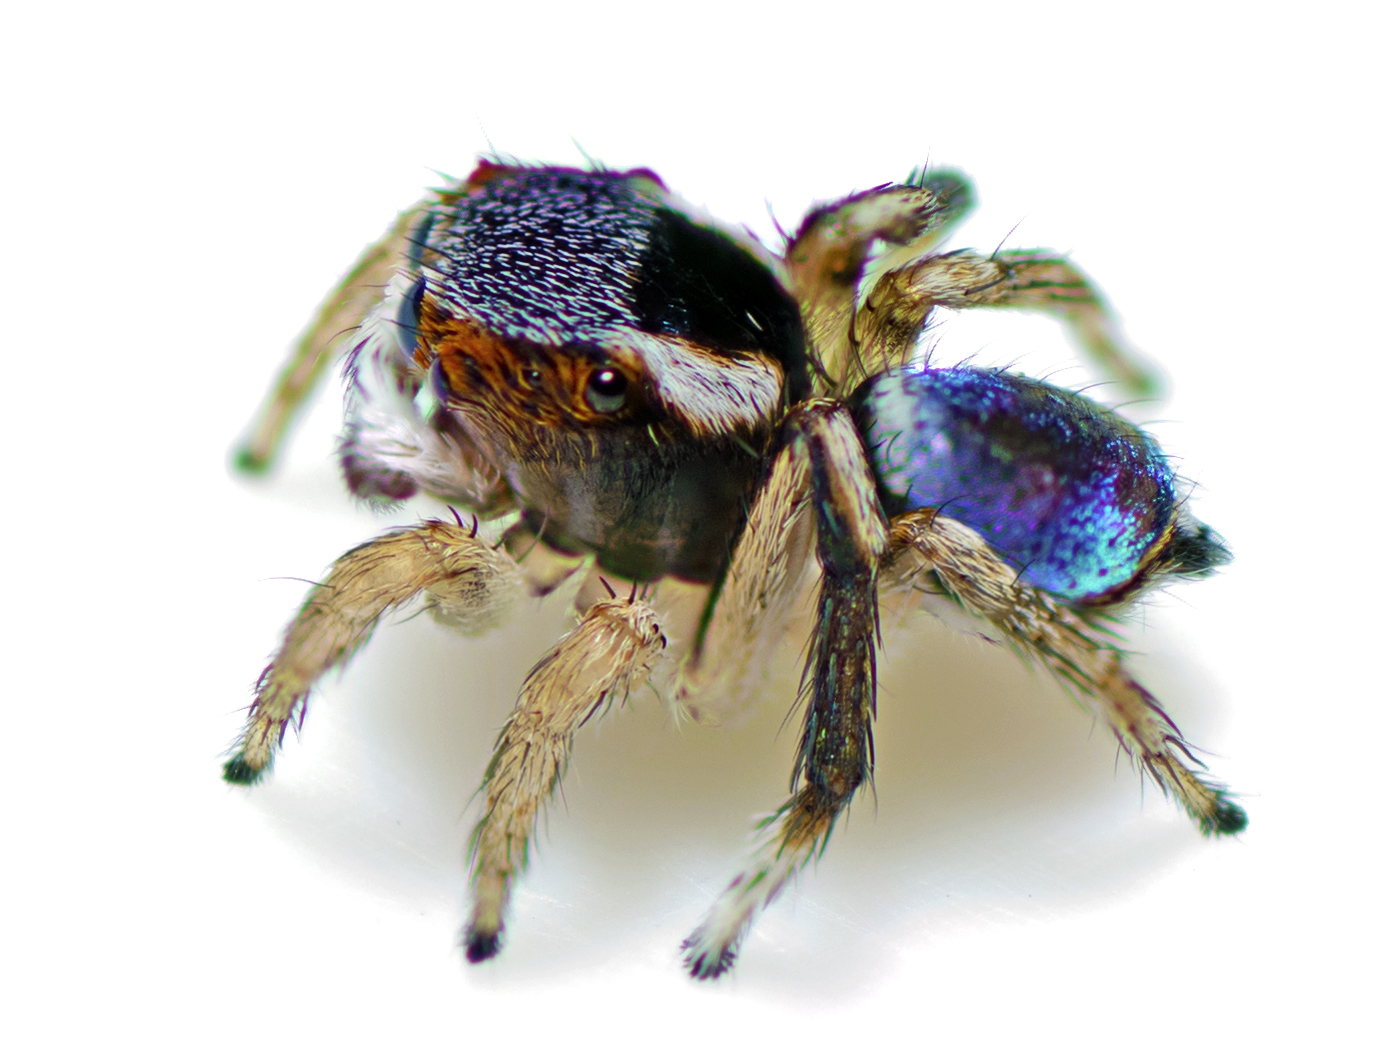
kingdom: Animalia
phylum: Arthropoda
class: Arachnida
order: Araneae
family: Salticidae
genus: Maratus
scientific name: Maratus anomalus
